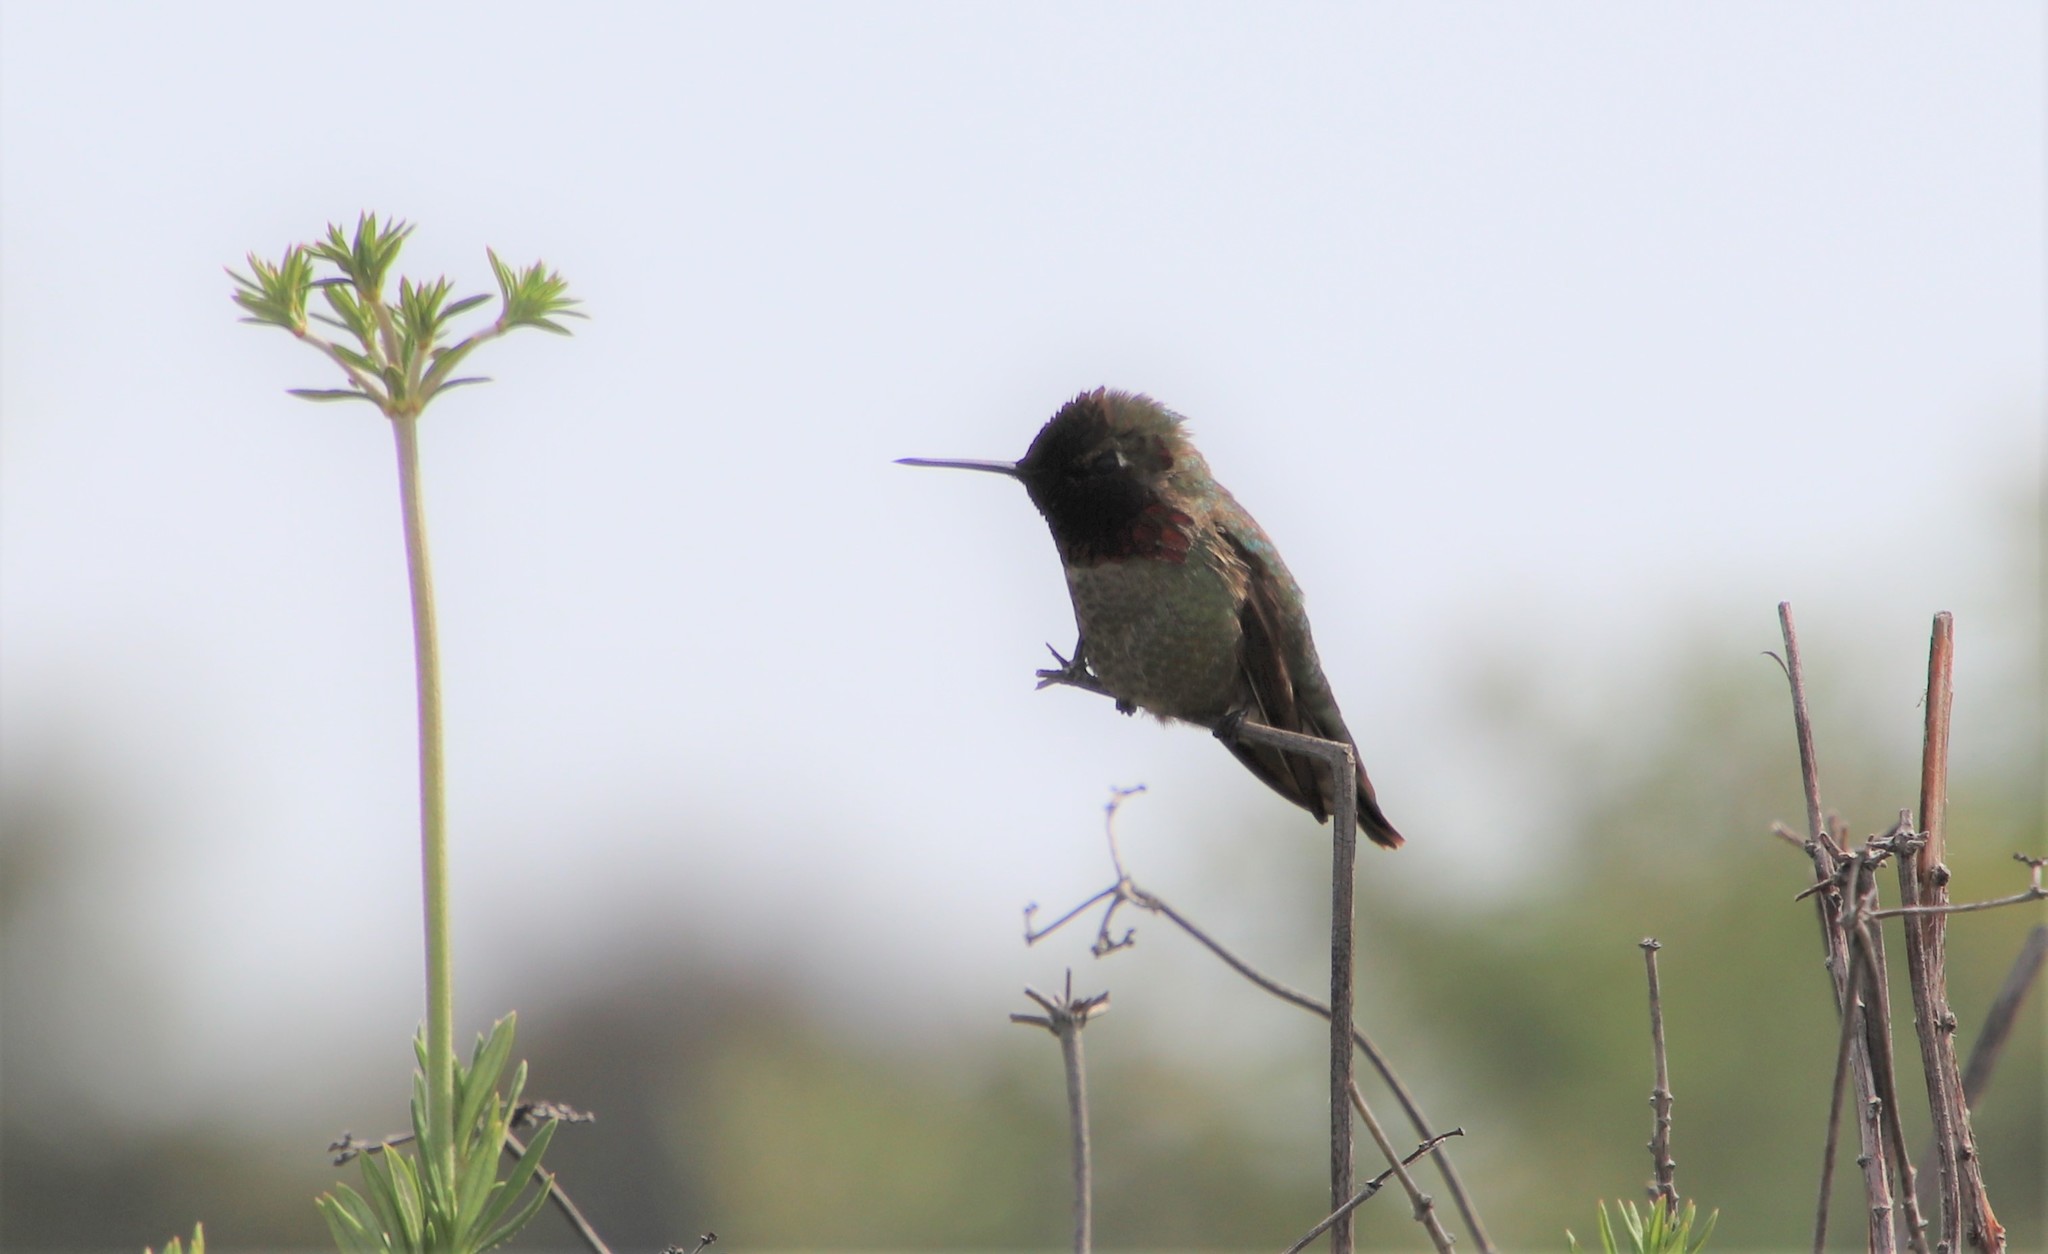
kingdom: Animalia
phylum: Chordata
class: Aves
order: Apodiformes
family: Trochilidae
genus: Calypte
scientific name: Calypte anna
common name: Anna's hummingbird
